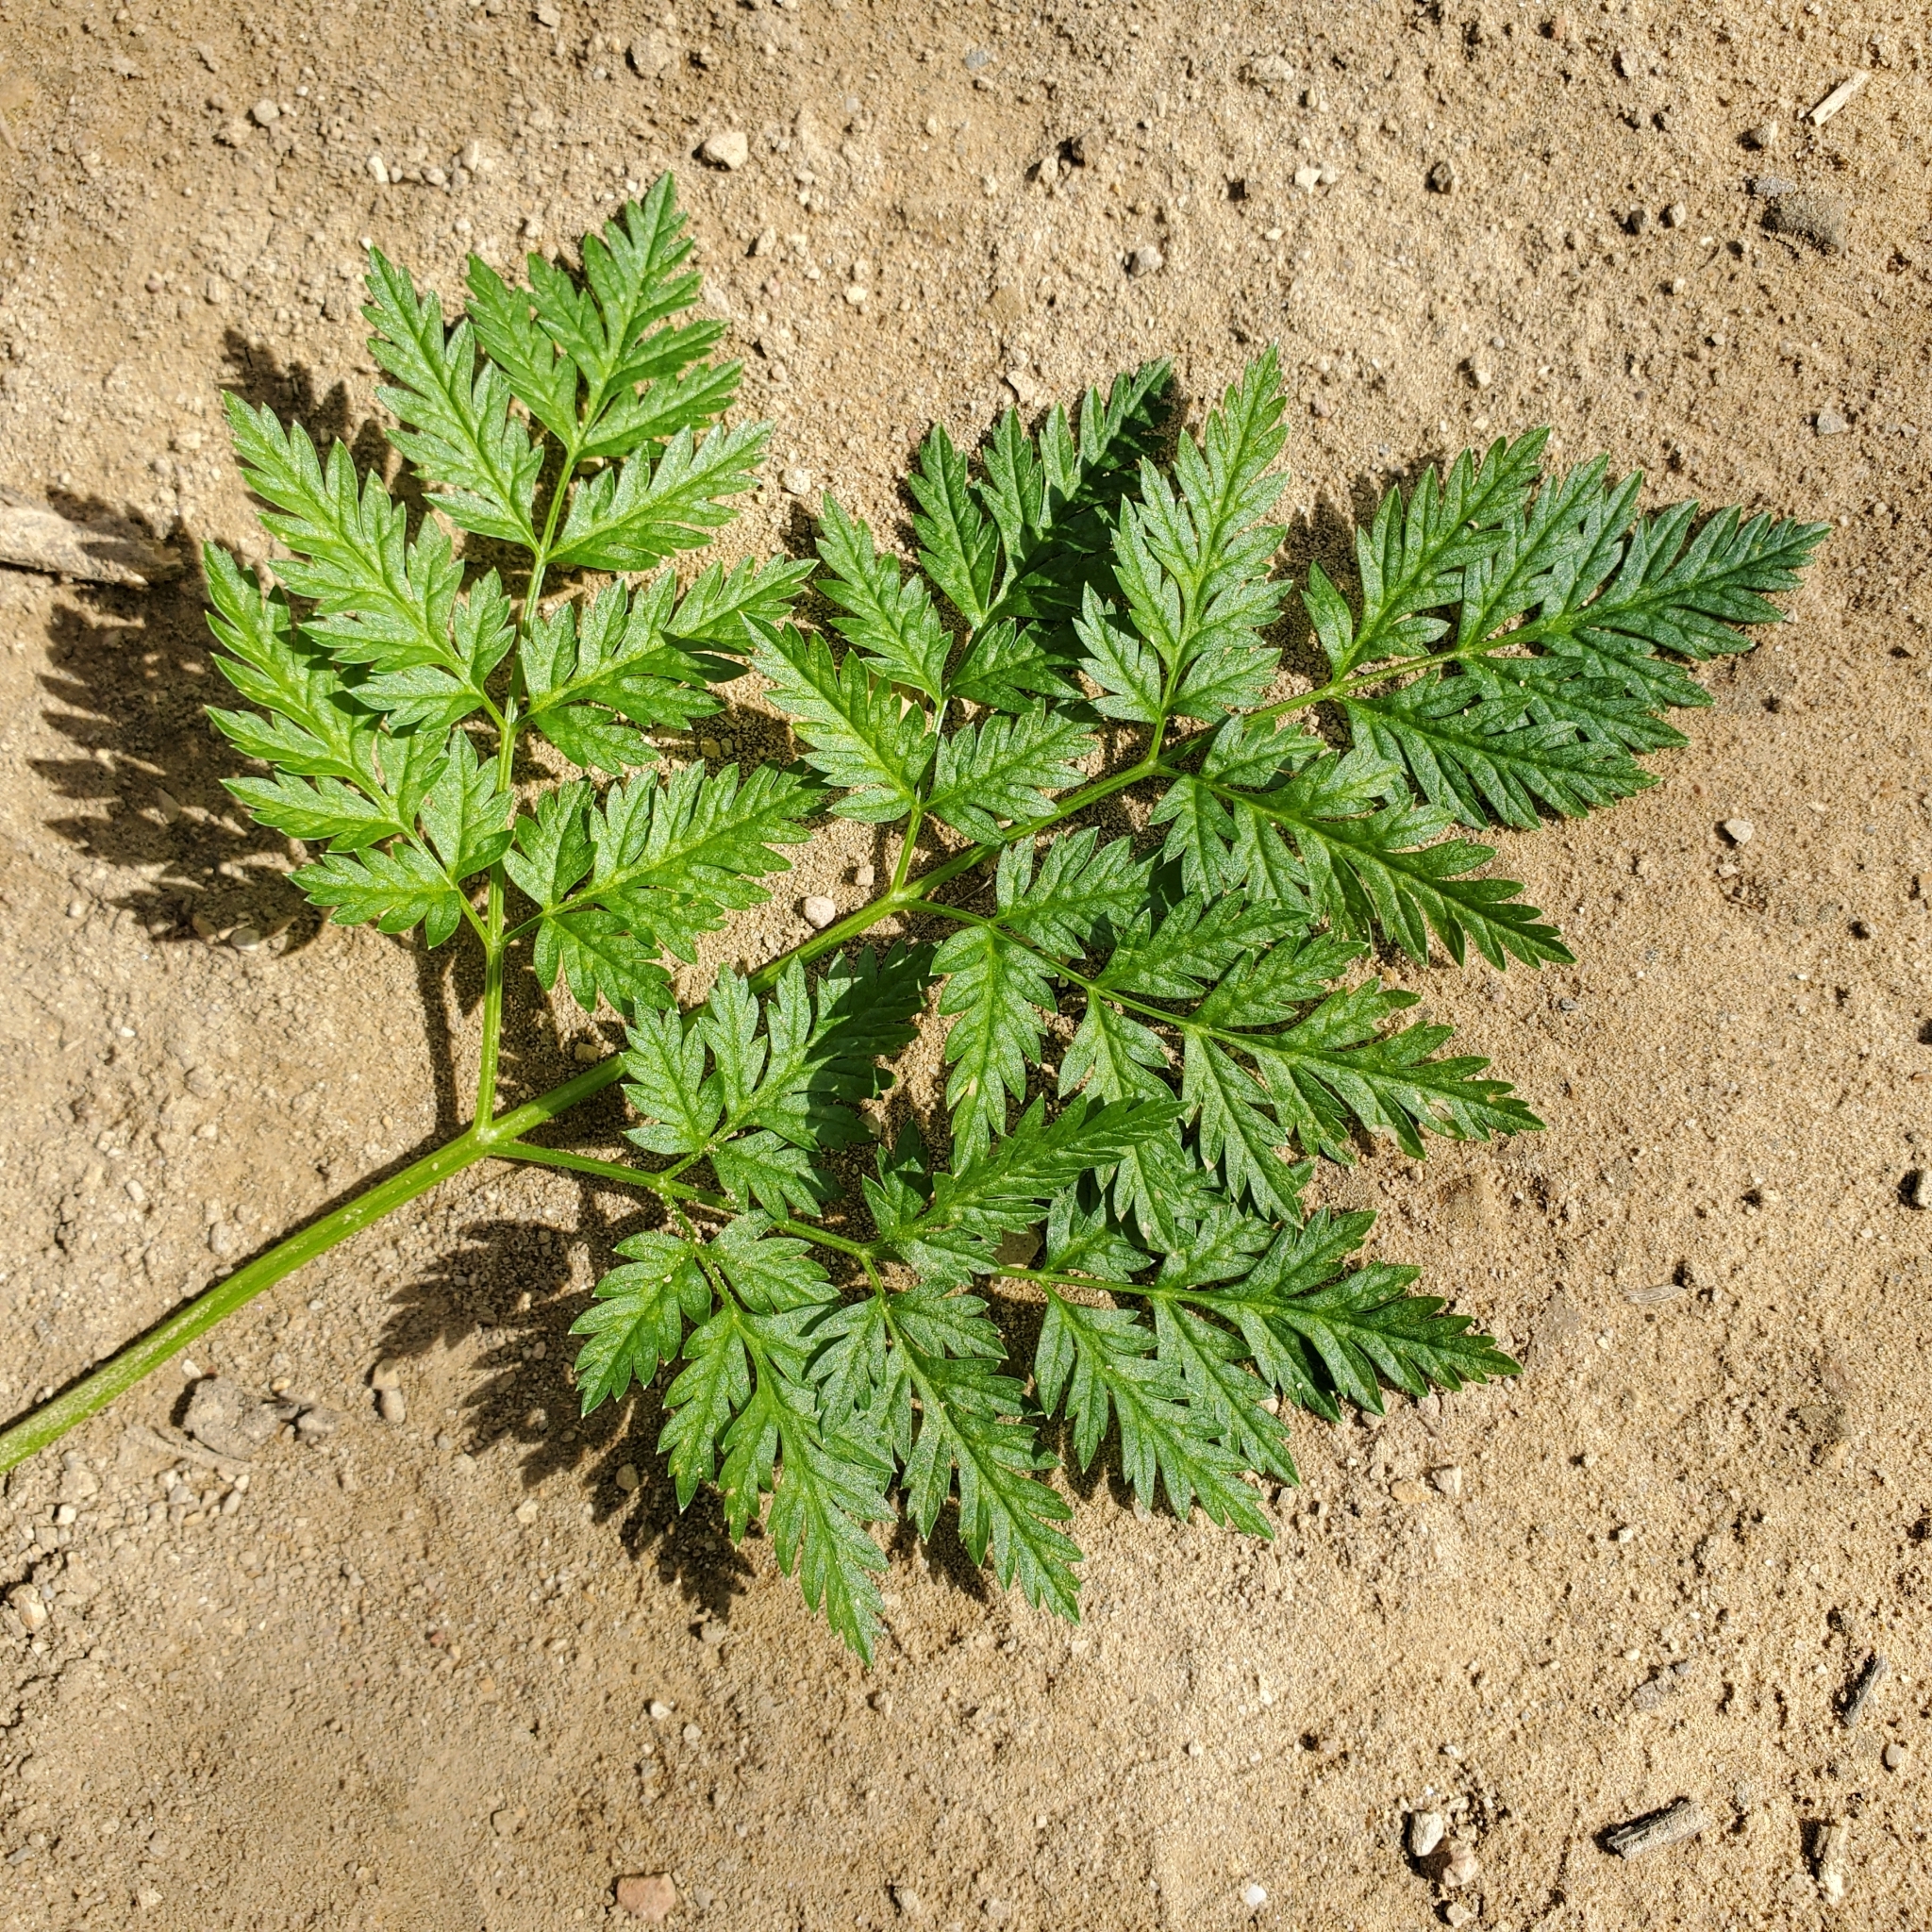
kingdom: Plantae
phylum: Tracheophyta
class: Magnoliopsida
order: Apiales
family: Apiaceae
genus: Conium
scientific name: Conium maculatum
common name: Hemlock
